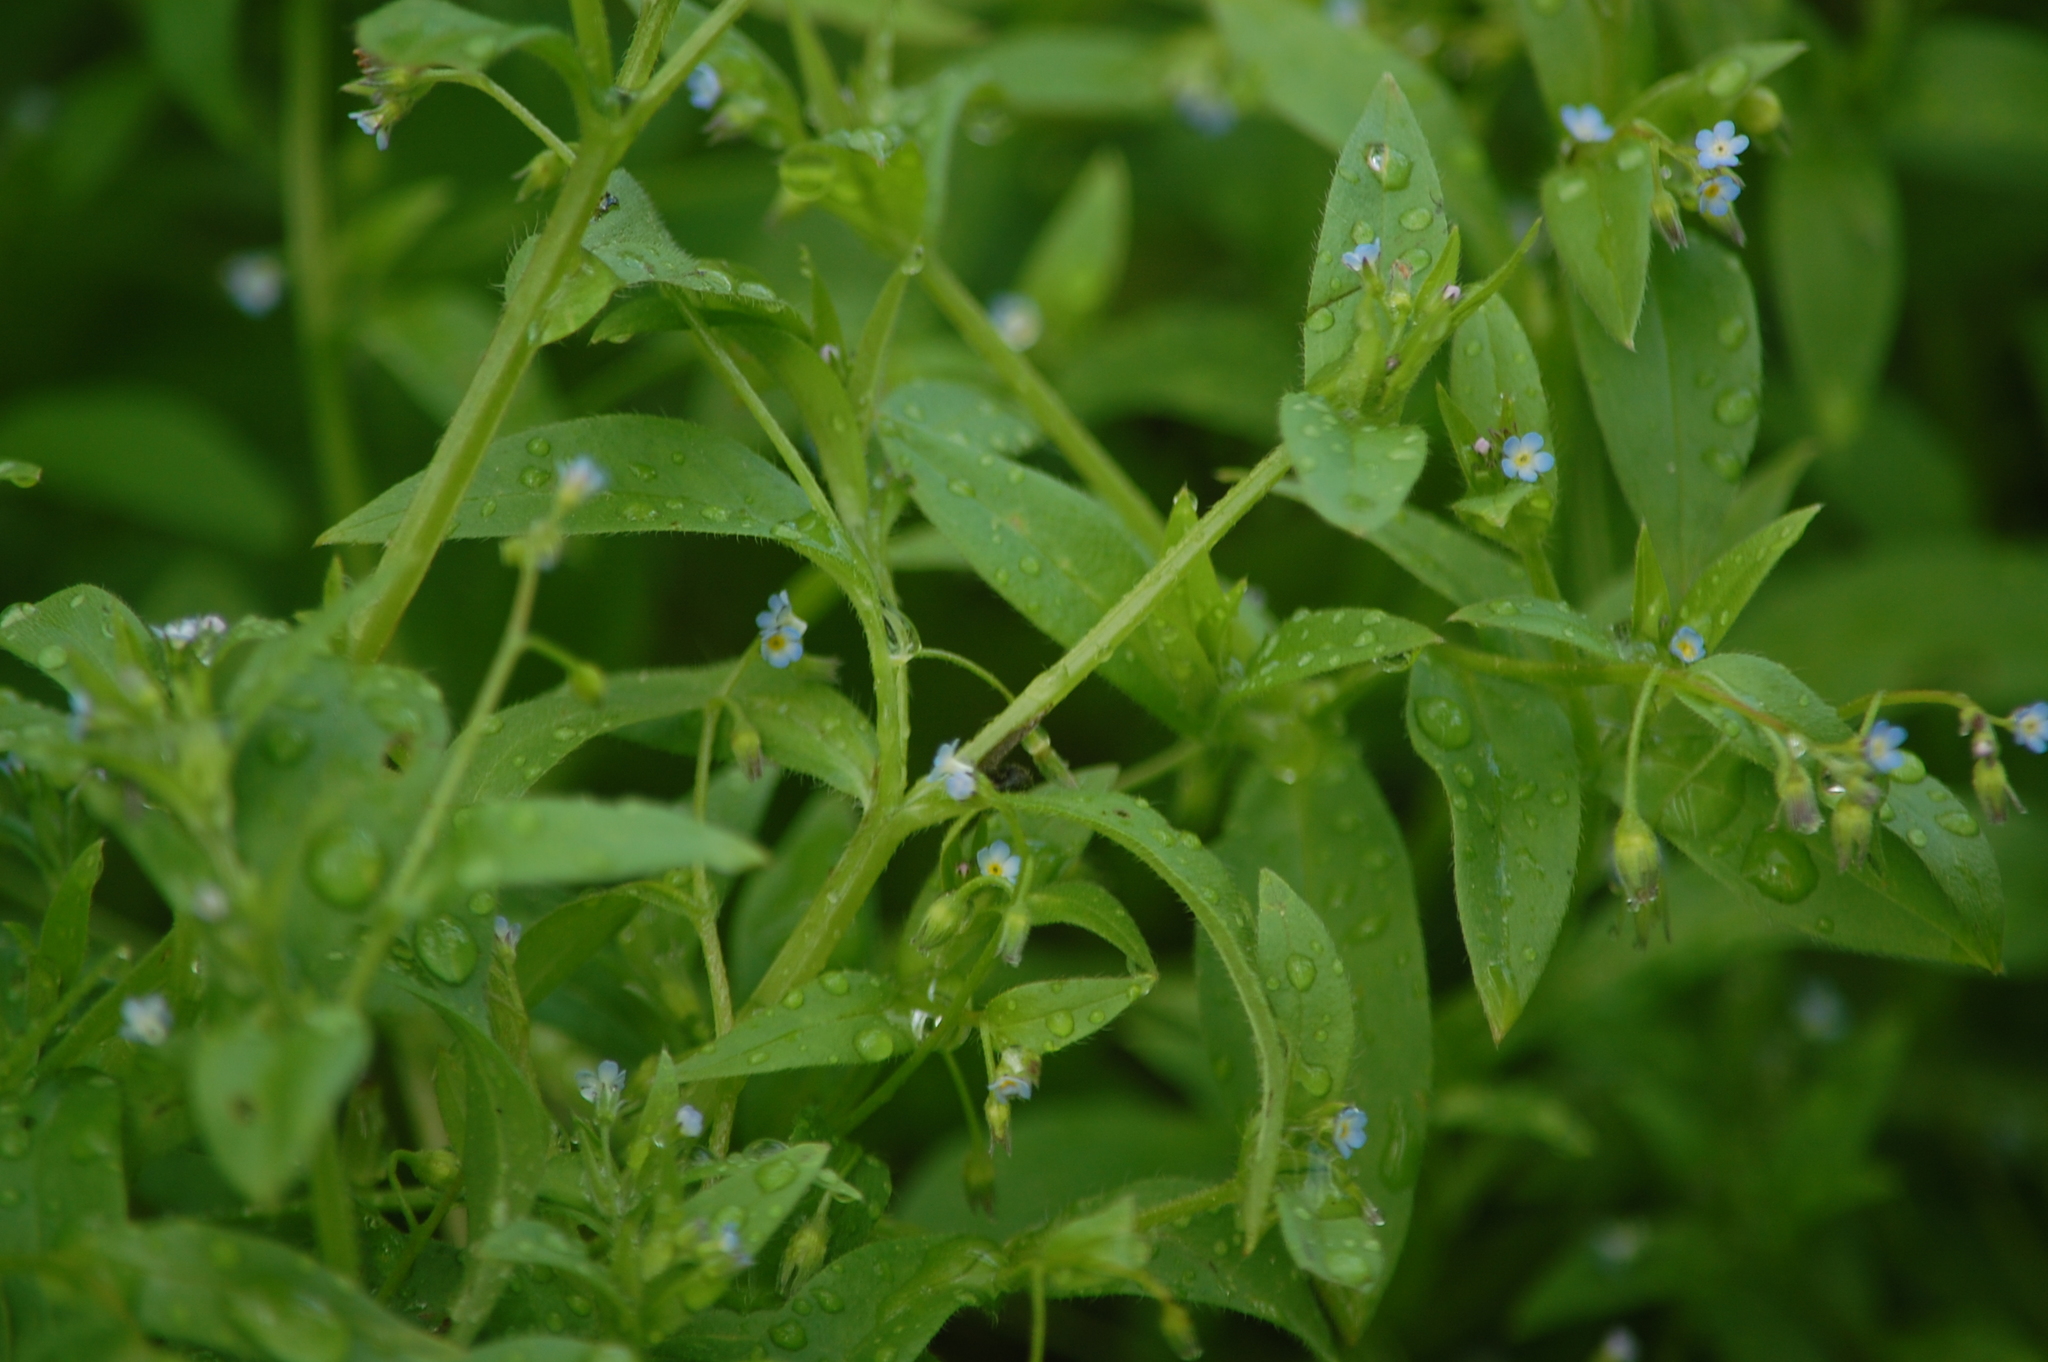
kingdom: Plantae
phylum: Tracheophyta
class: Magnoliopsida
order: Boraginales
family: Boraginaceae
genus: Myosotis
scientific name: Myosotis sparsiflora
